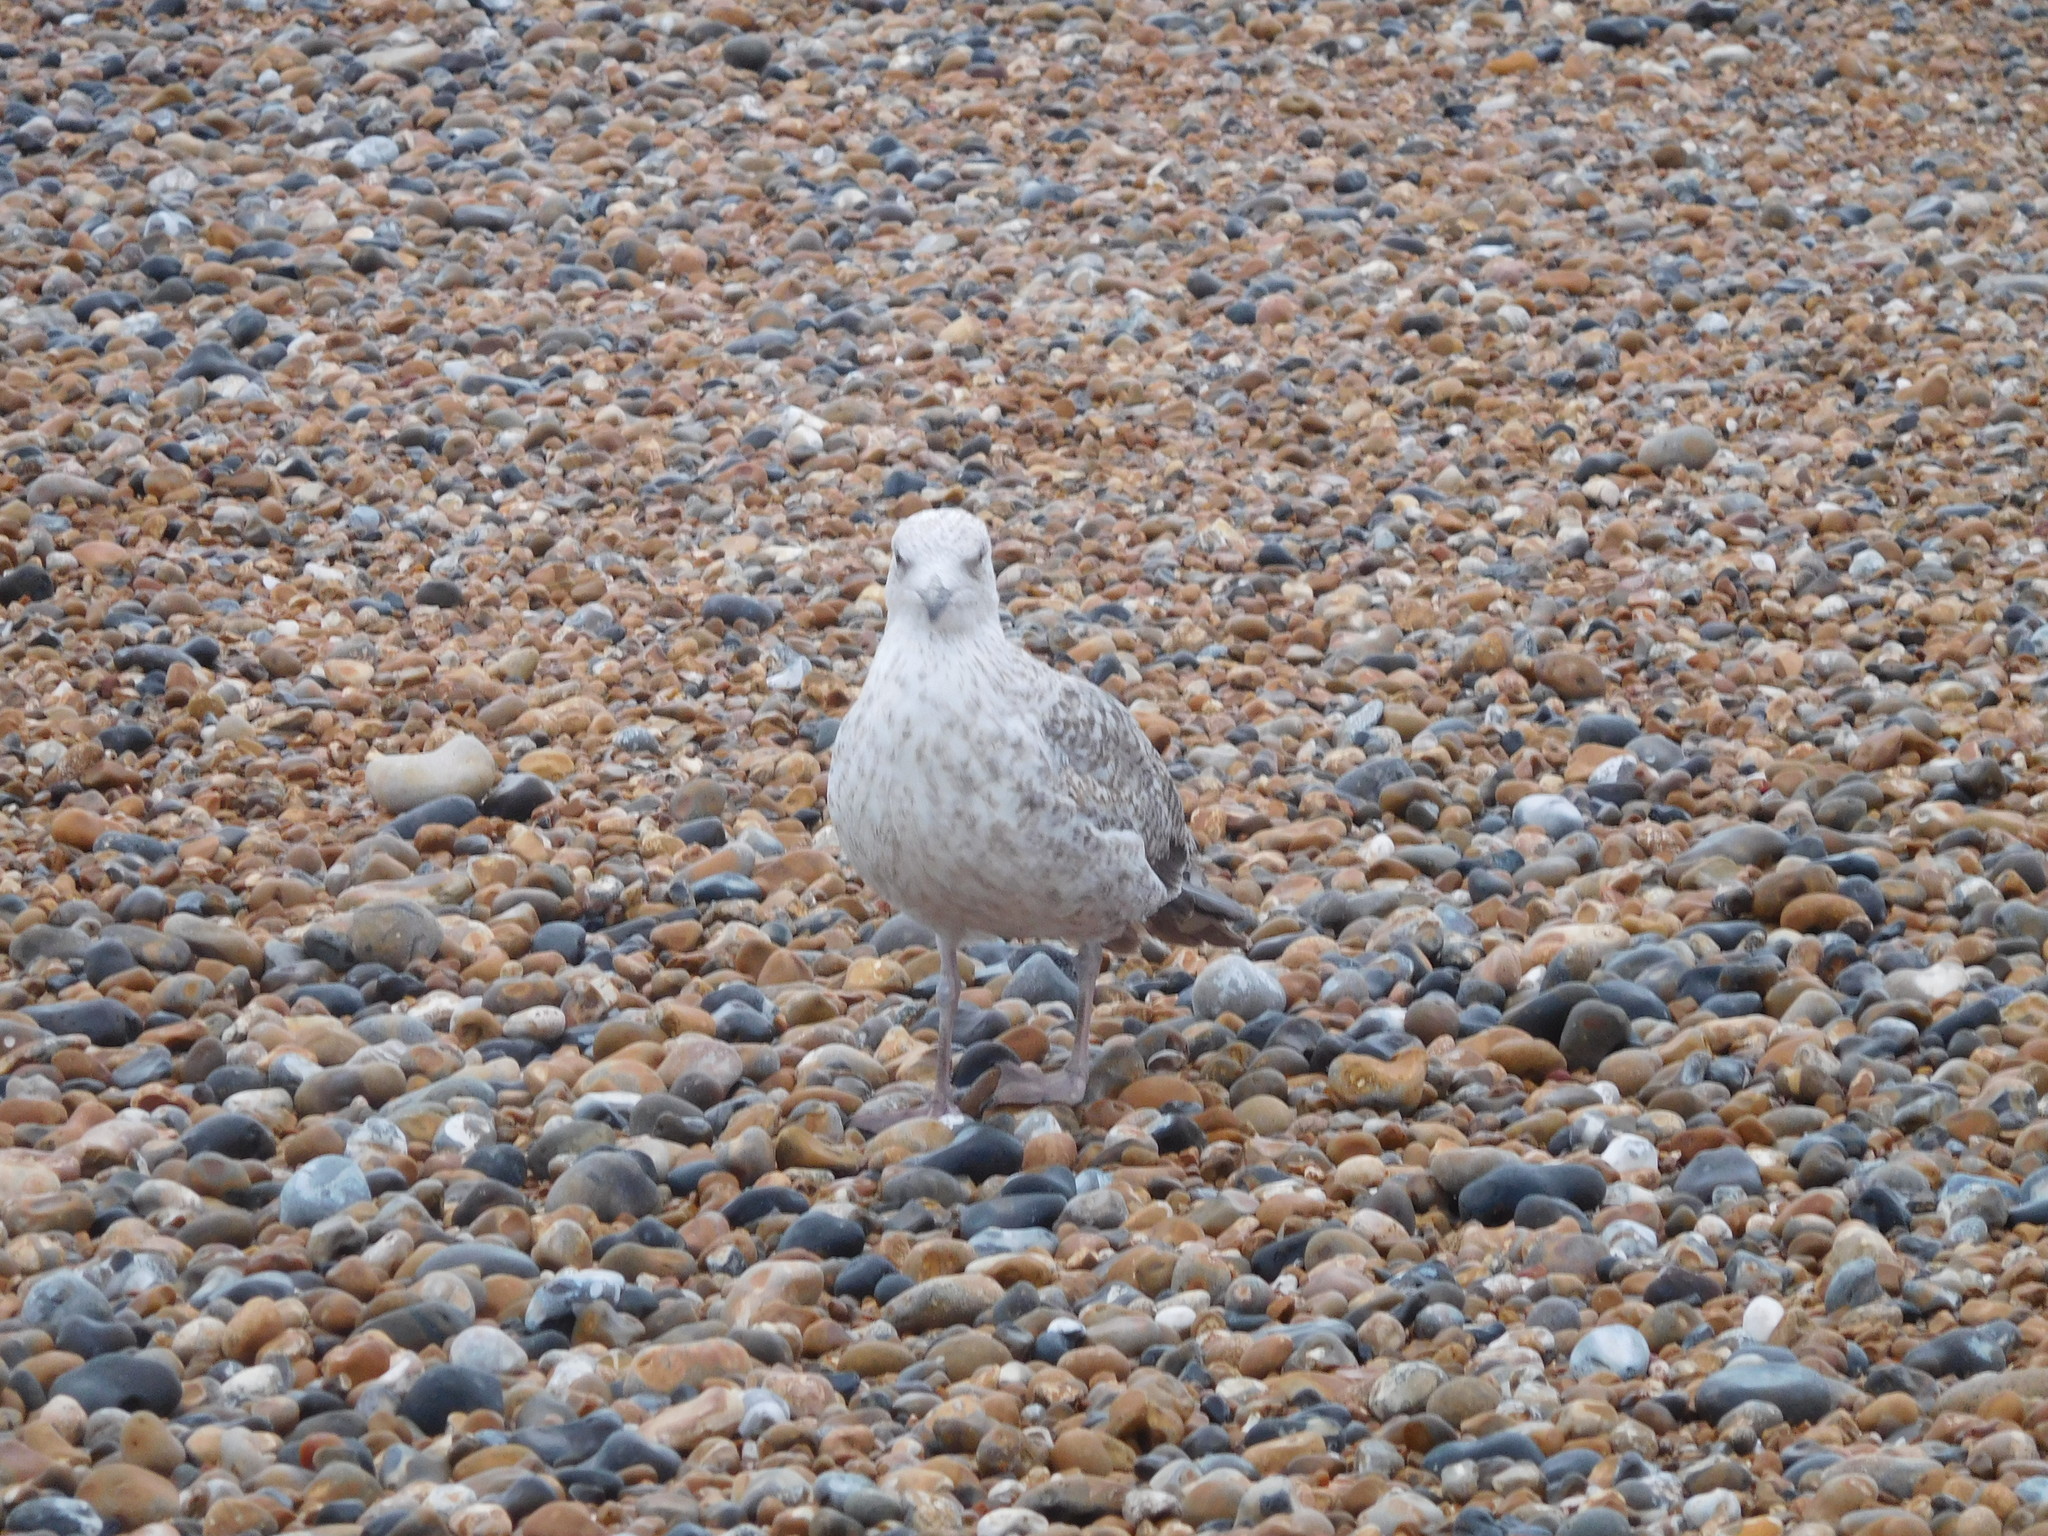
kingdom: Animalia
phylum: Chordata
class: Aves
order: Charadriiformes
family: Laridae
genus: Larus
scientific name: Larus argentatus
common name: Herring gull
